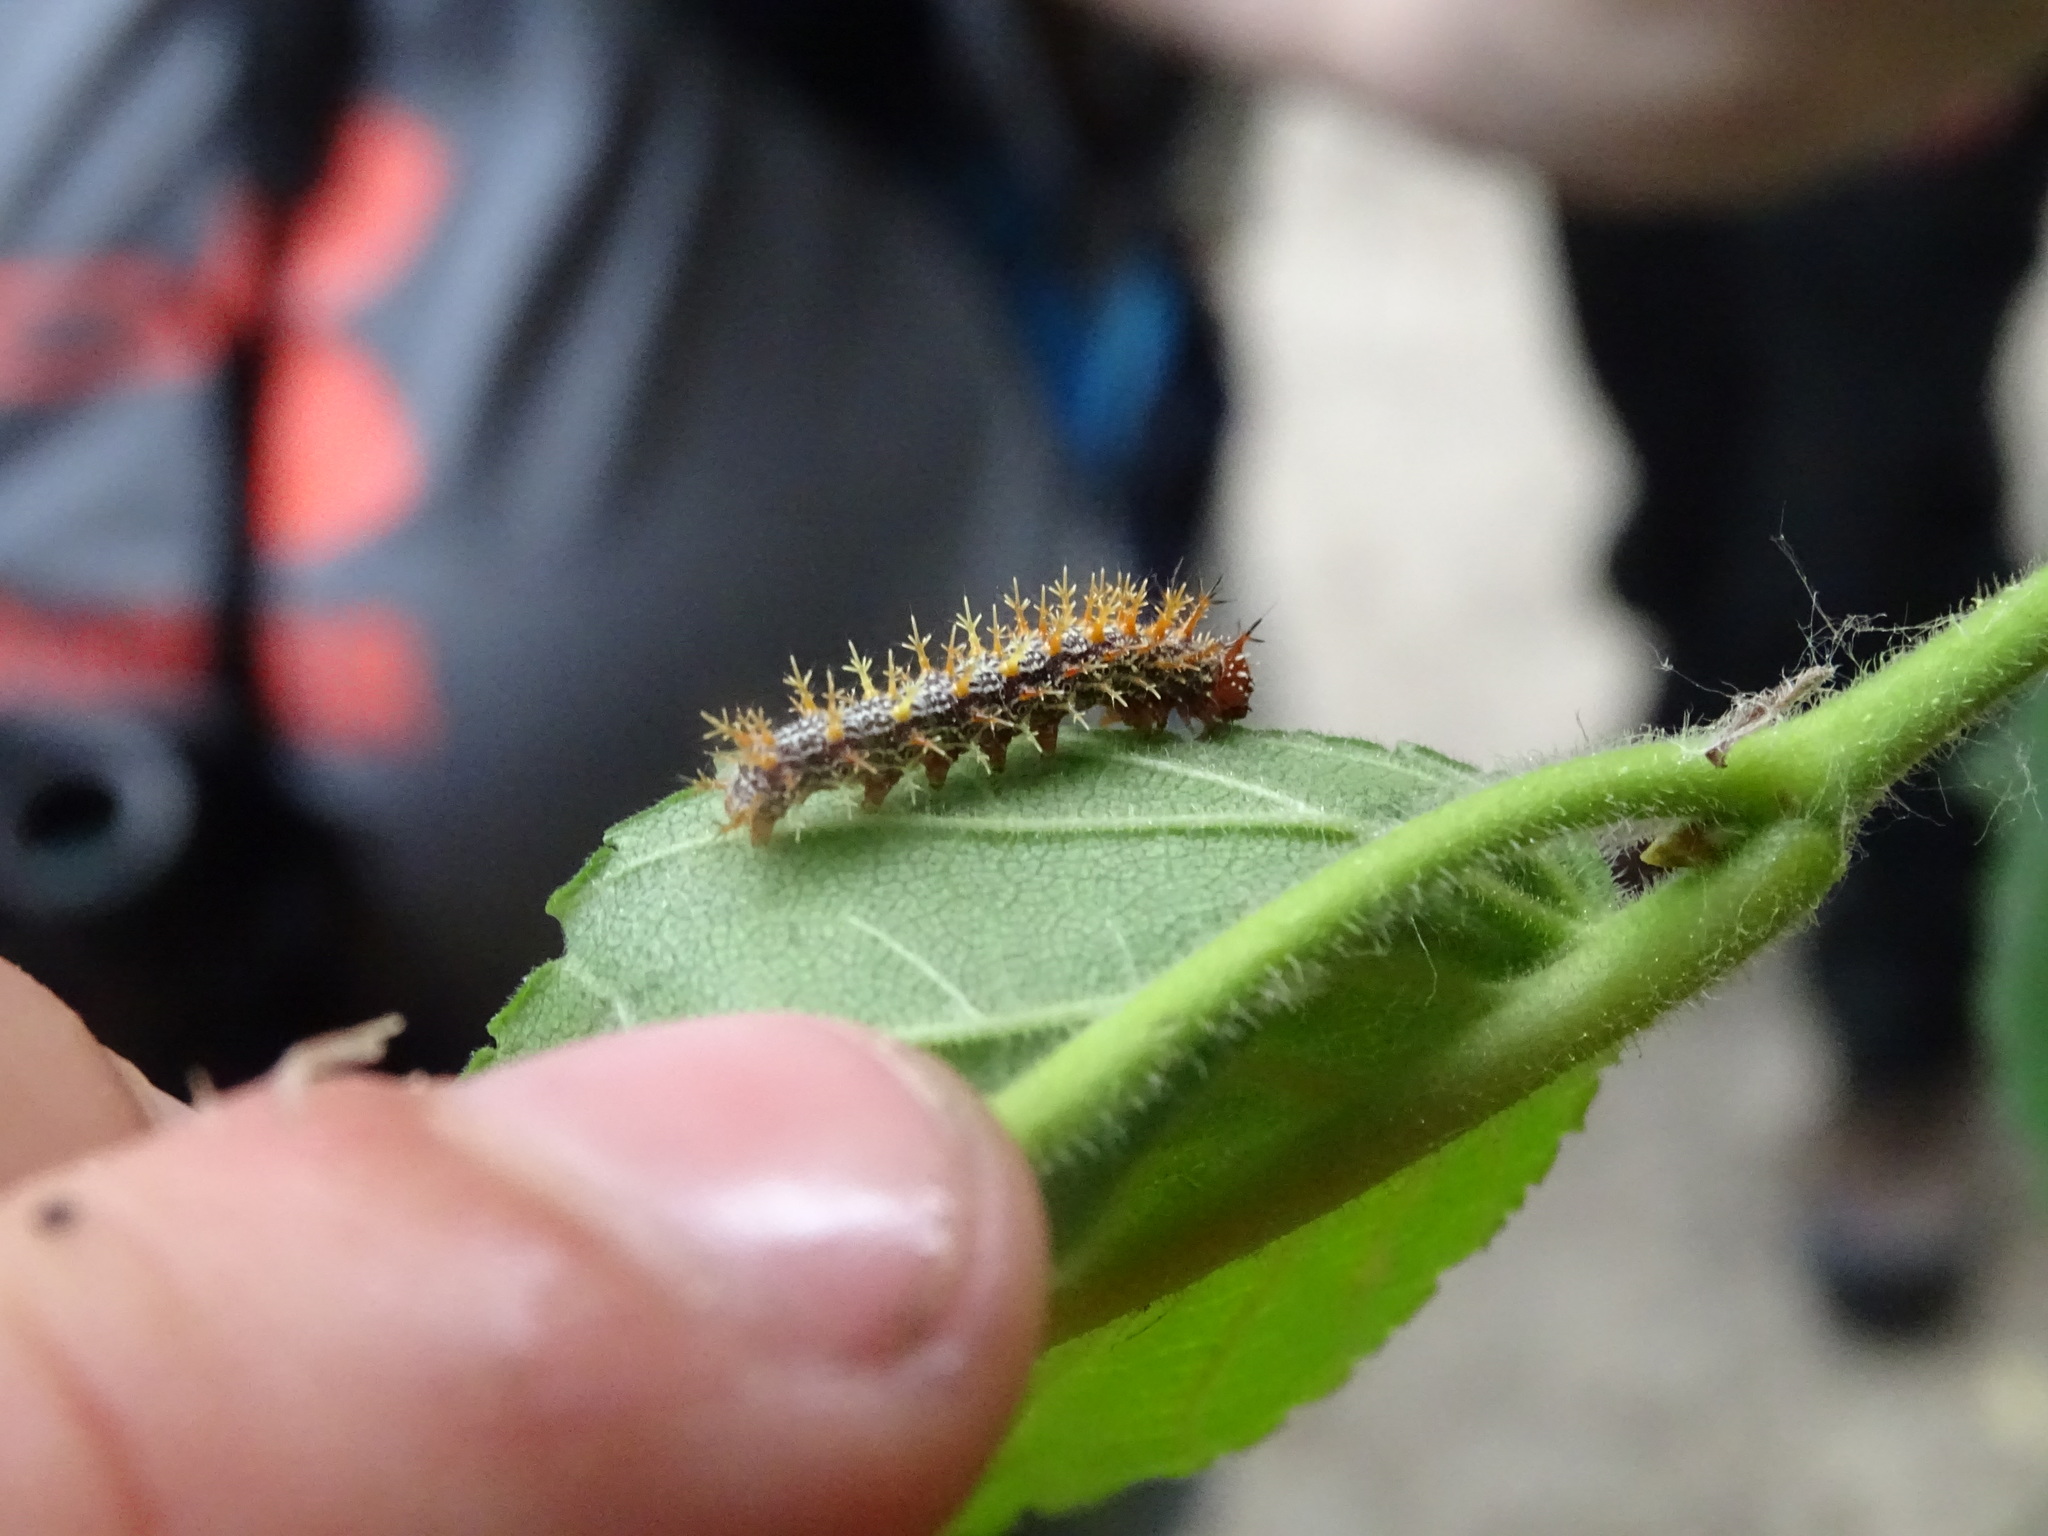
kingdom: Animalia
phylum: Arthropoda
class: Insecta
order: Lepidoptera
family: Nymphalidae
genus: Polygonia
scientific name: Polygonia interrogationis
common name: Question mark
